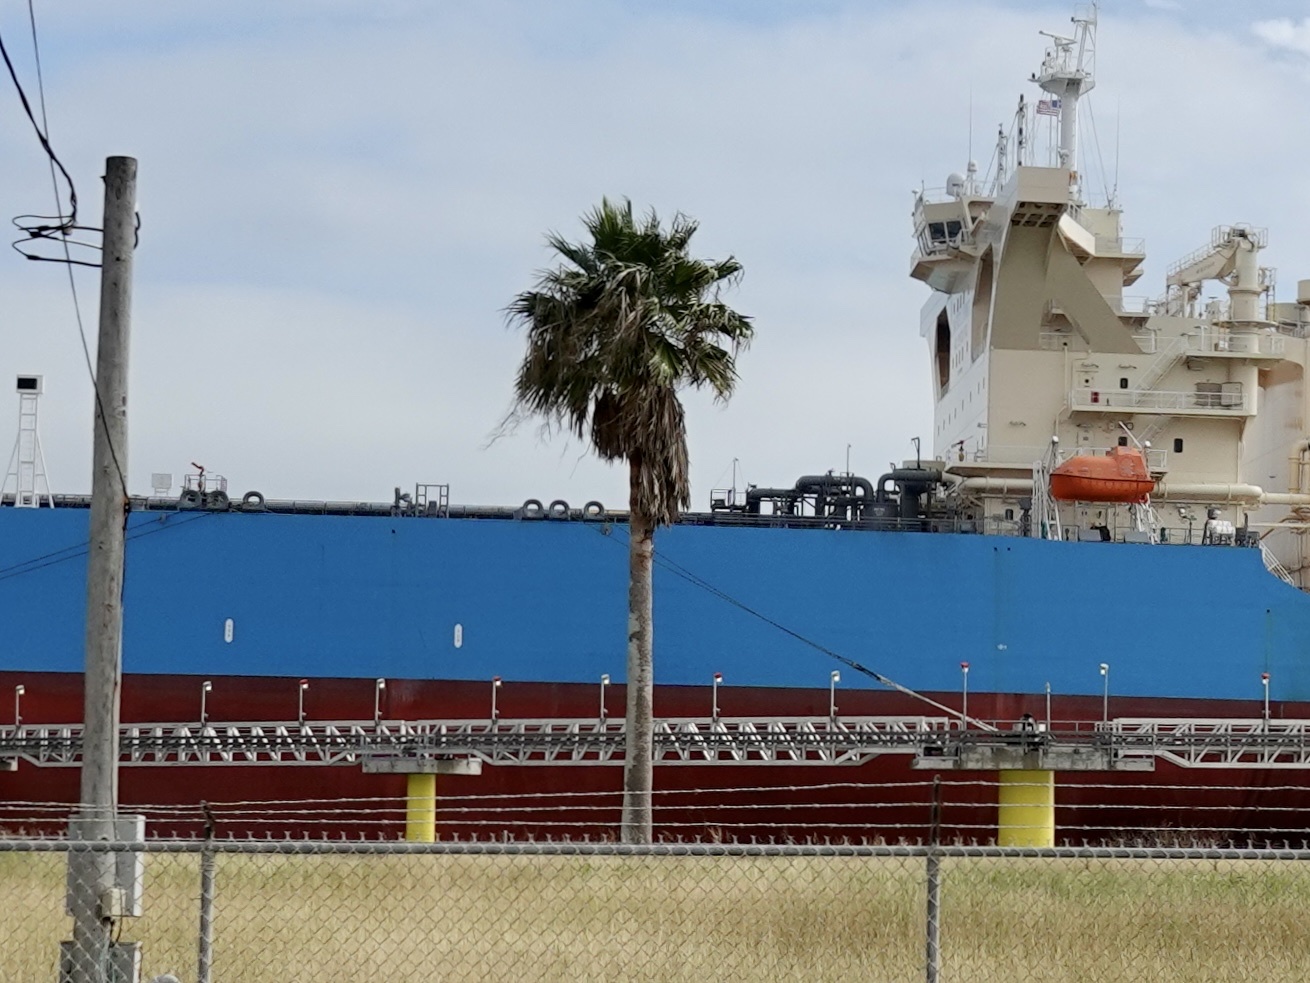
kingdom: Plantae
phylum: Tracheophyta
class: Liliopsida
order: Arecales
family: Arecaceae
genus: Washingtonia
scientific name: Washingtonia robusta
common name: Mexican fan palm
